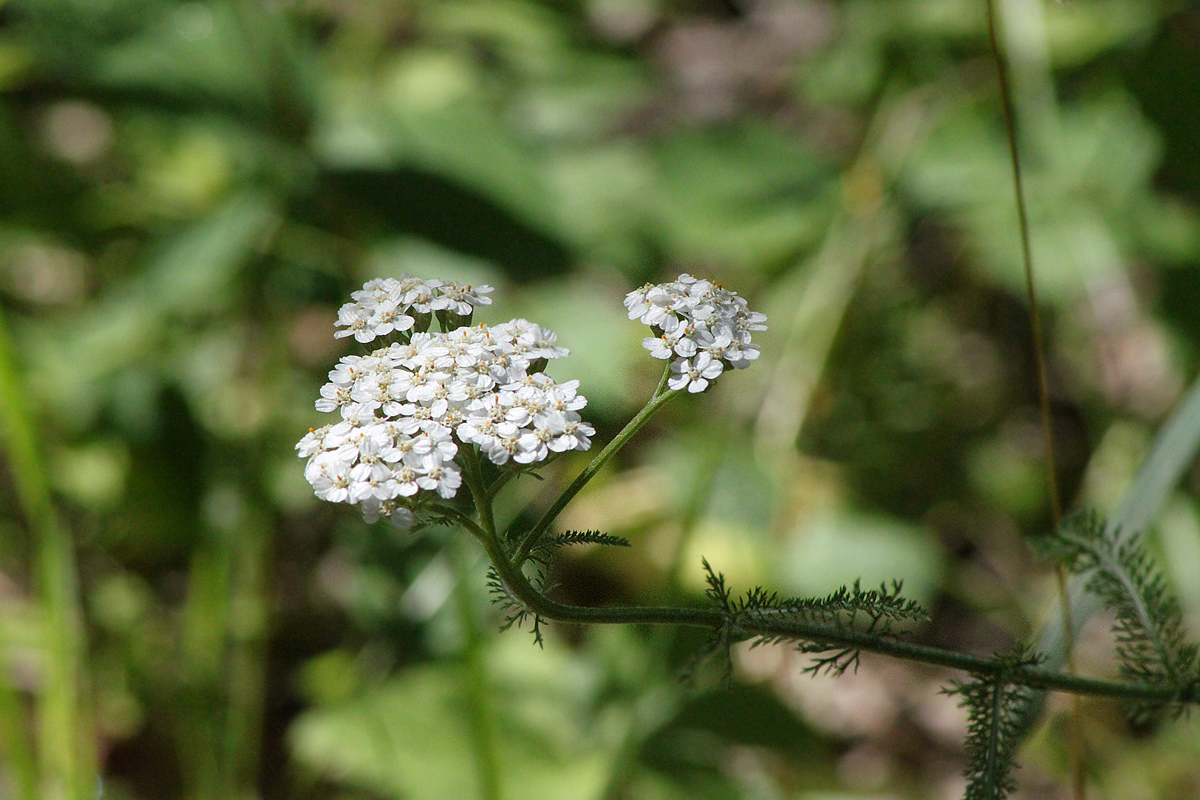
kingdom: Plantae
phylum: Tracheophyta
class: Magnoliopsida
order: Asterales
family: Asteraceae
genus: Achillea
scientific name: Achillea millefolium
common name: Yarrow
